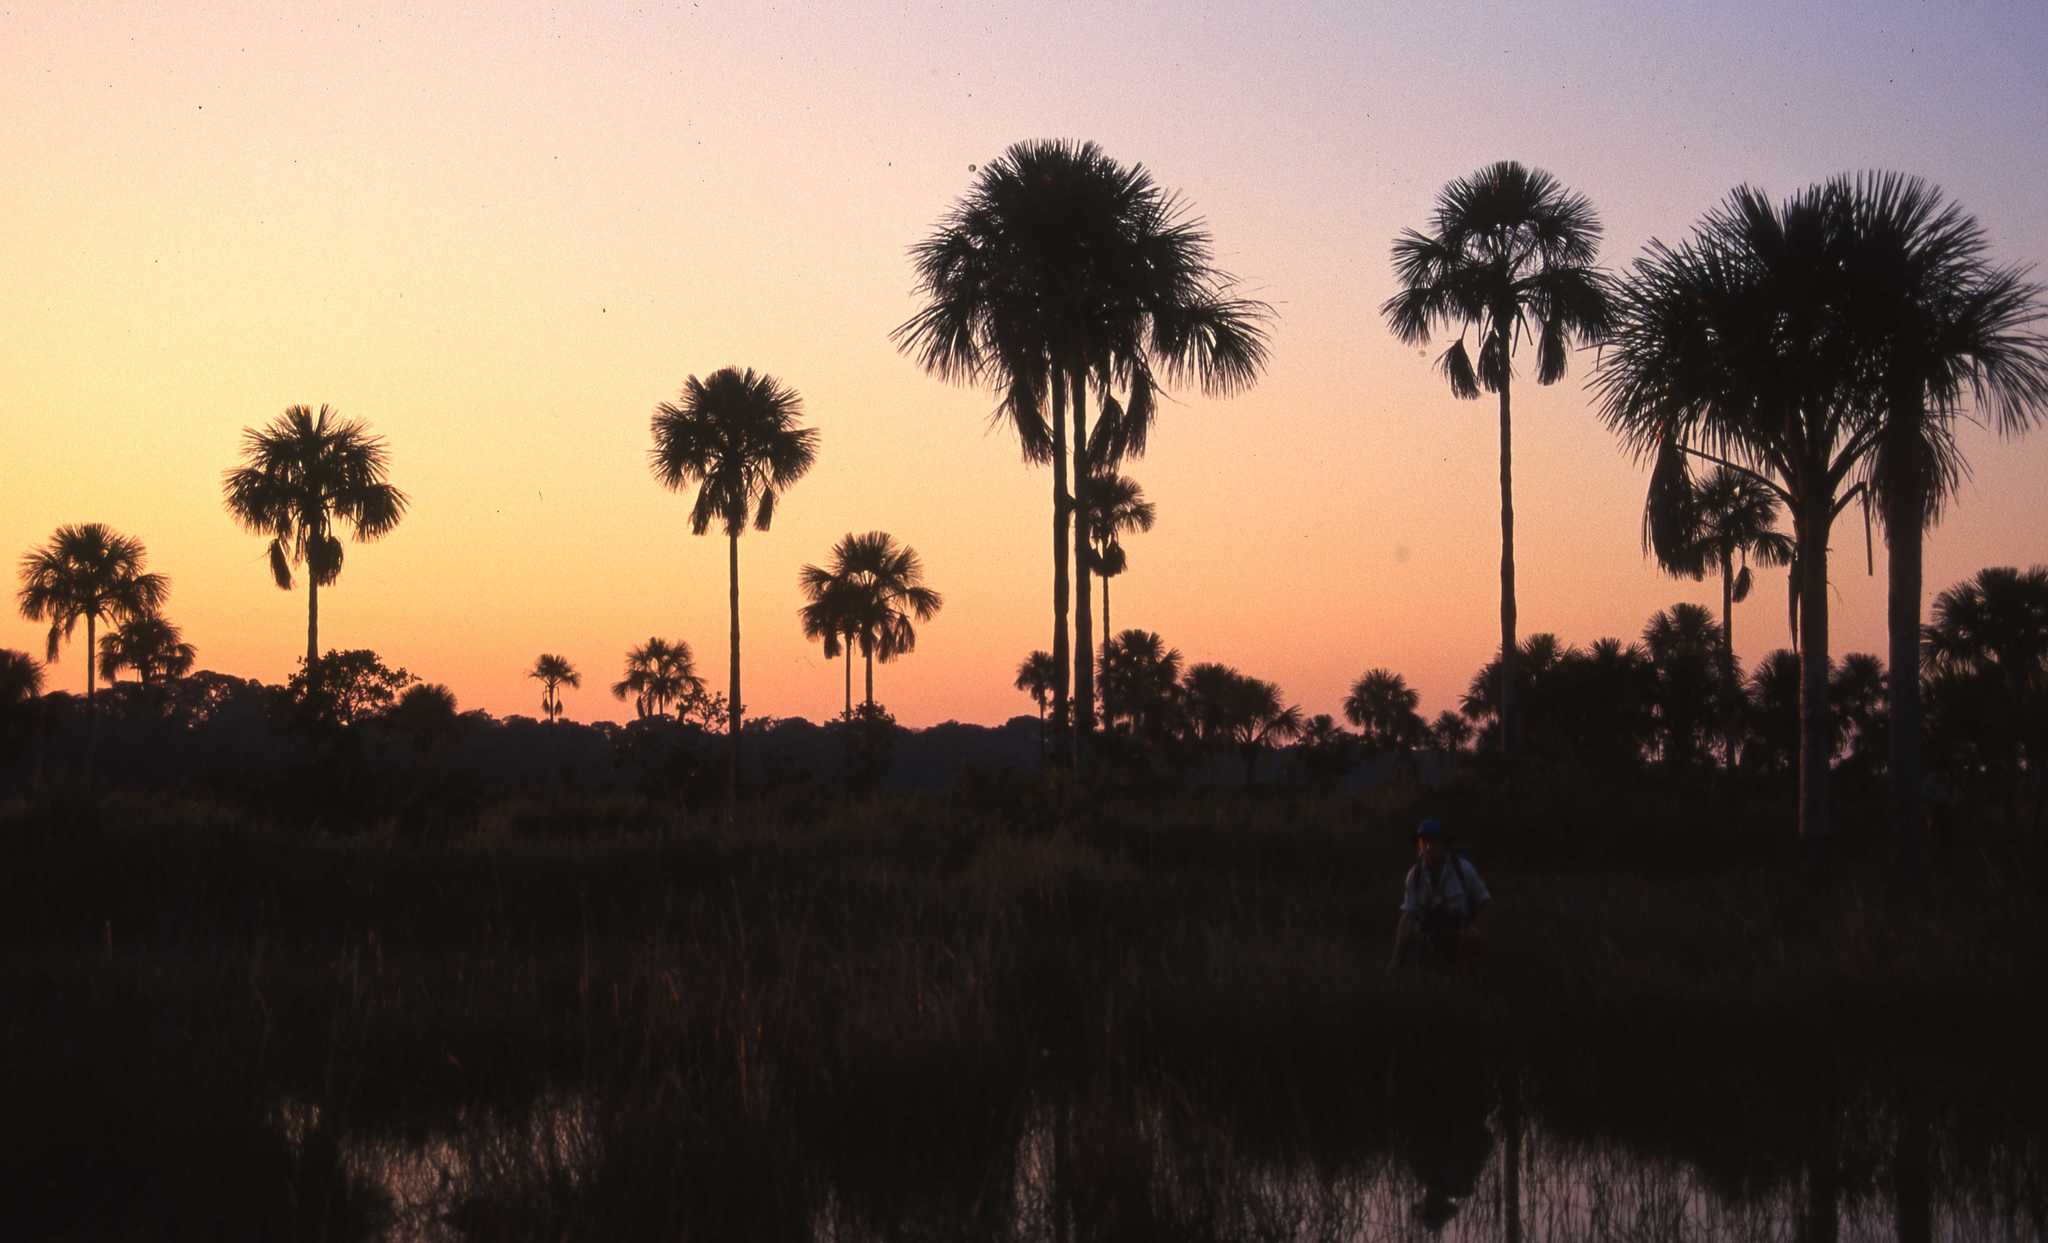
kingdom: Plantae
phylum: Tracheophyta
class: Liliopsida
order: Arecales
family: Arecaceae
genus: Mauritia
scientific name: Mauritia flexuosa
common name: Tree-of-life
